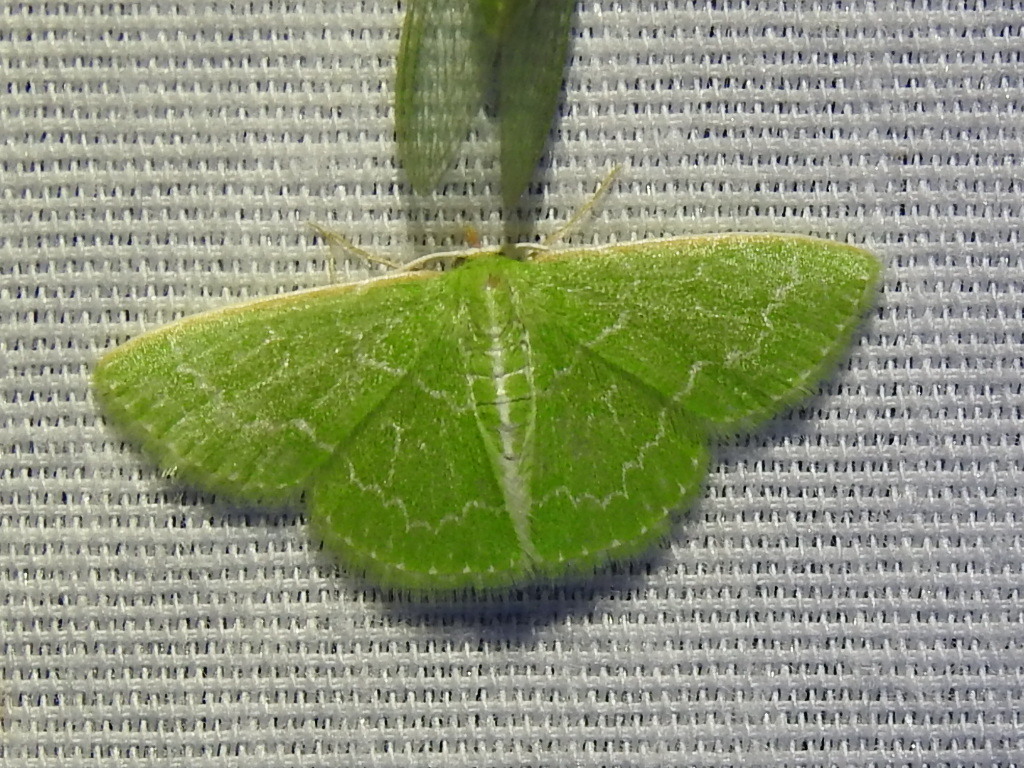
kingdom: Animalia
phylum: Arthropoda
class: Insecta
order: Lepidoptera
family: Geometridae
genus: Synchlora
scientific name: Synchlora frondaria
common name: Southern emerald
